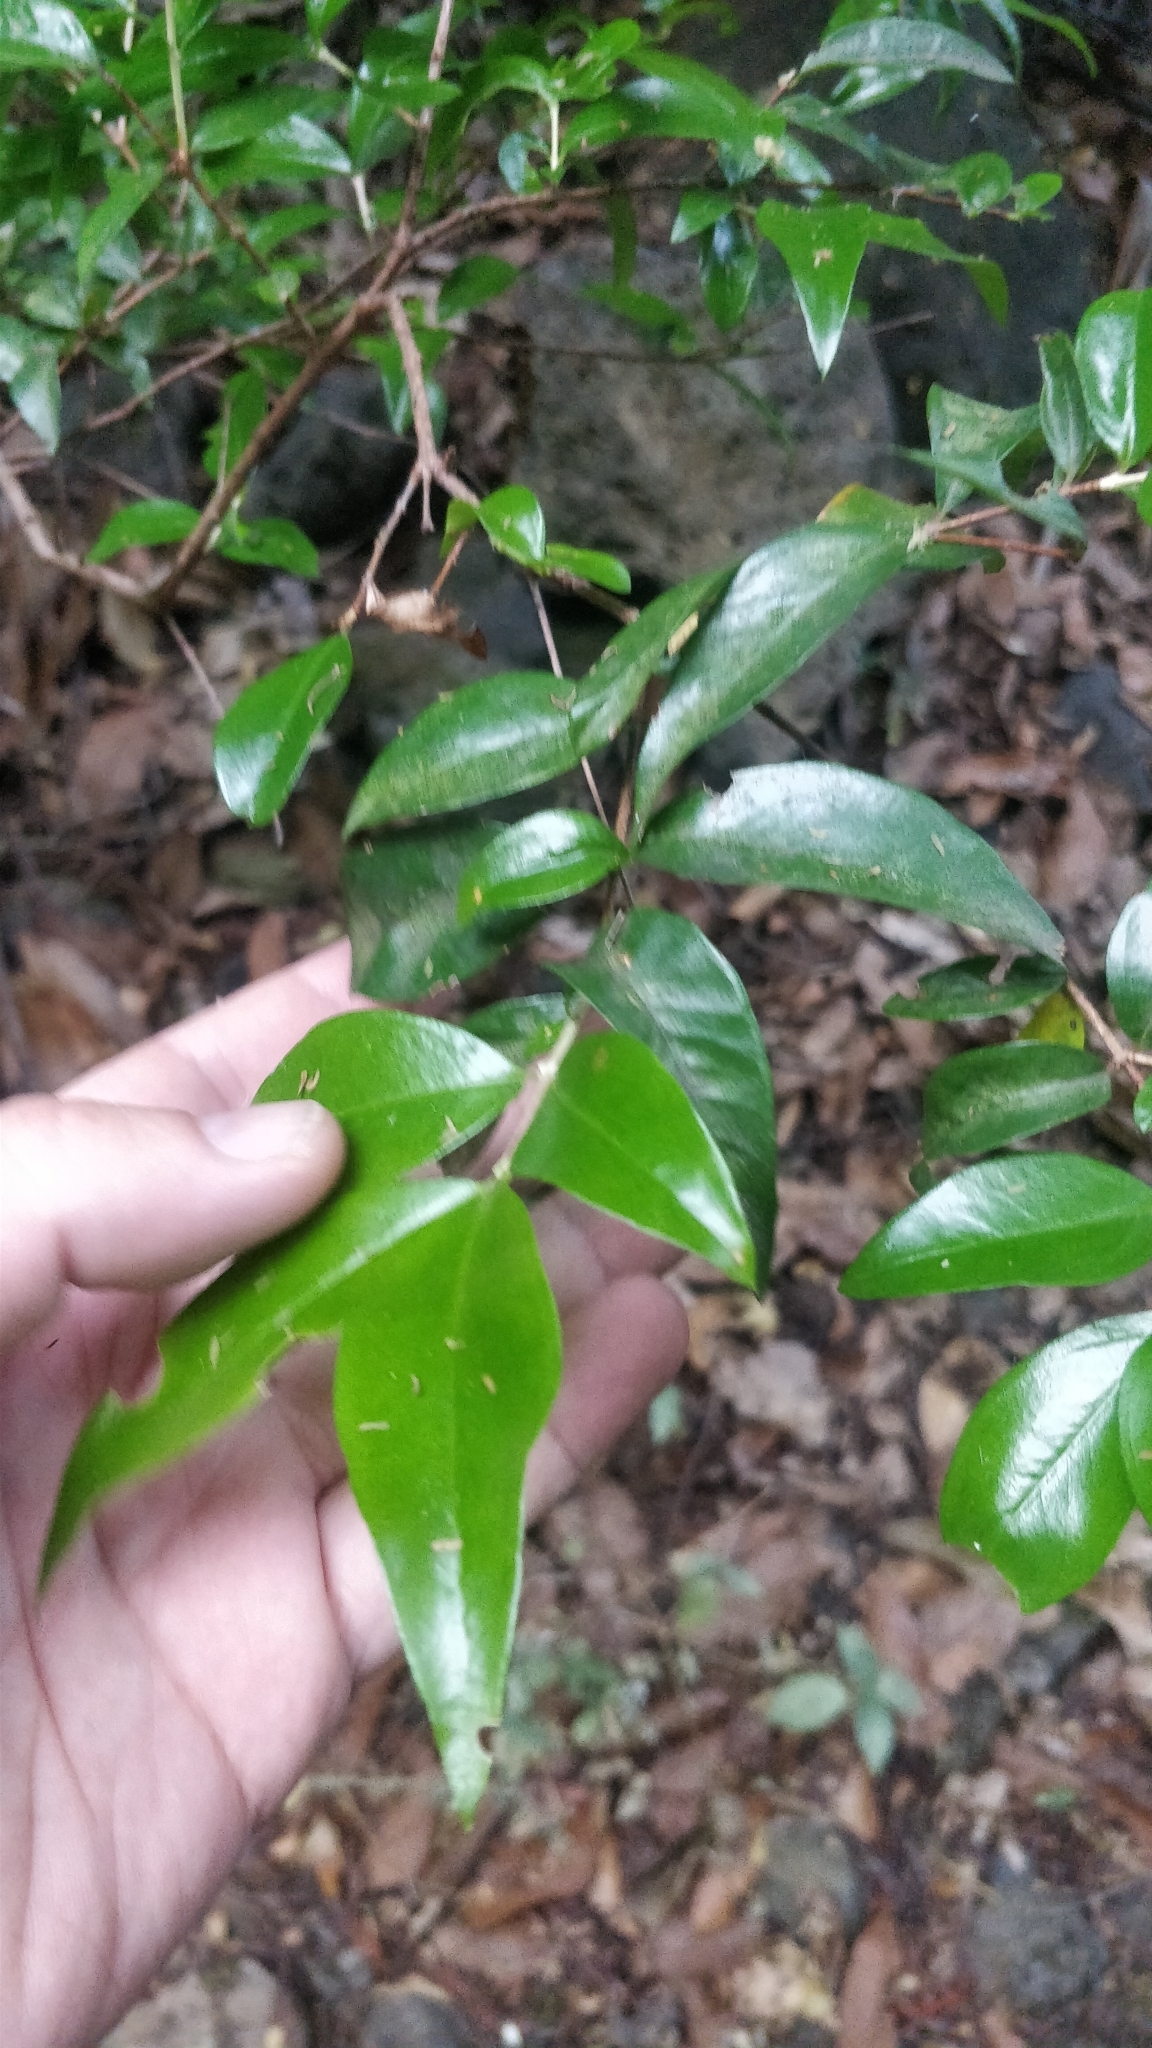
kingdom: Plantae
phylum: Tracheophyta
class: Magnoliopsida
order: Myrtales
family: Myrtaceae
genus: Myrtus
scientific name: Myrtus communis
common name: Myrtle
